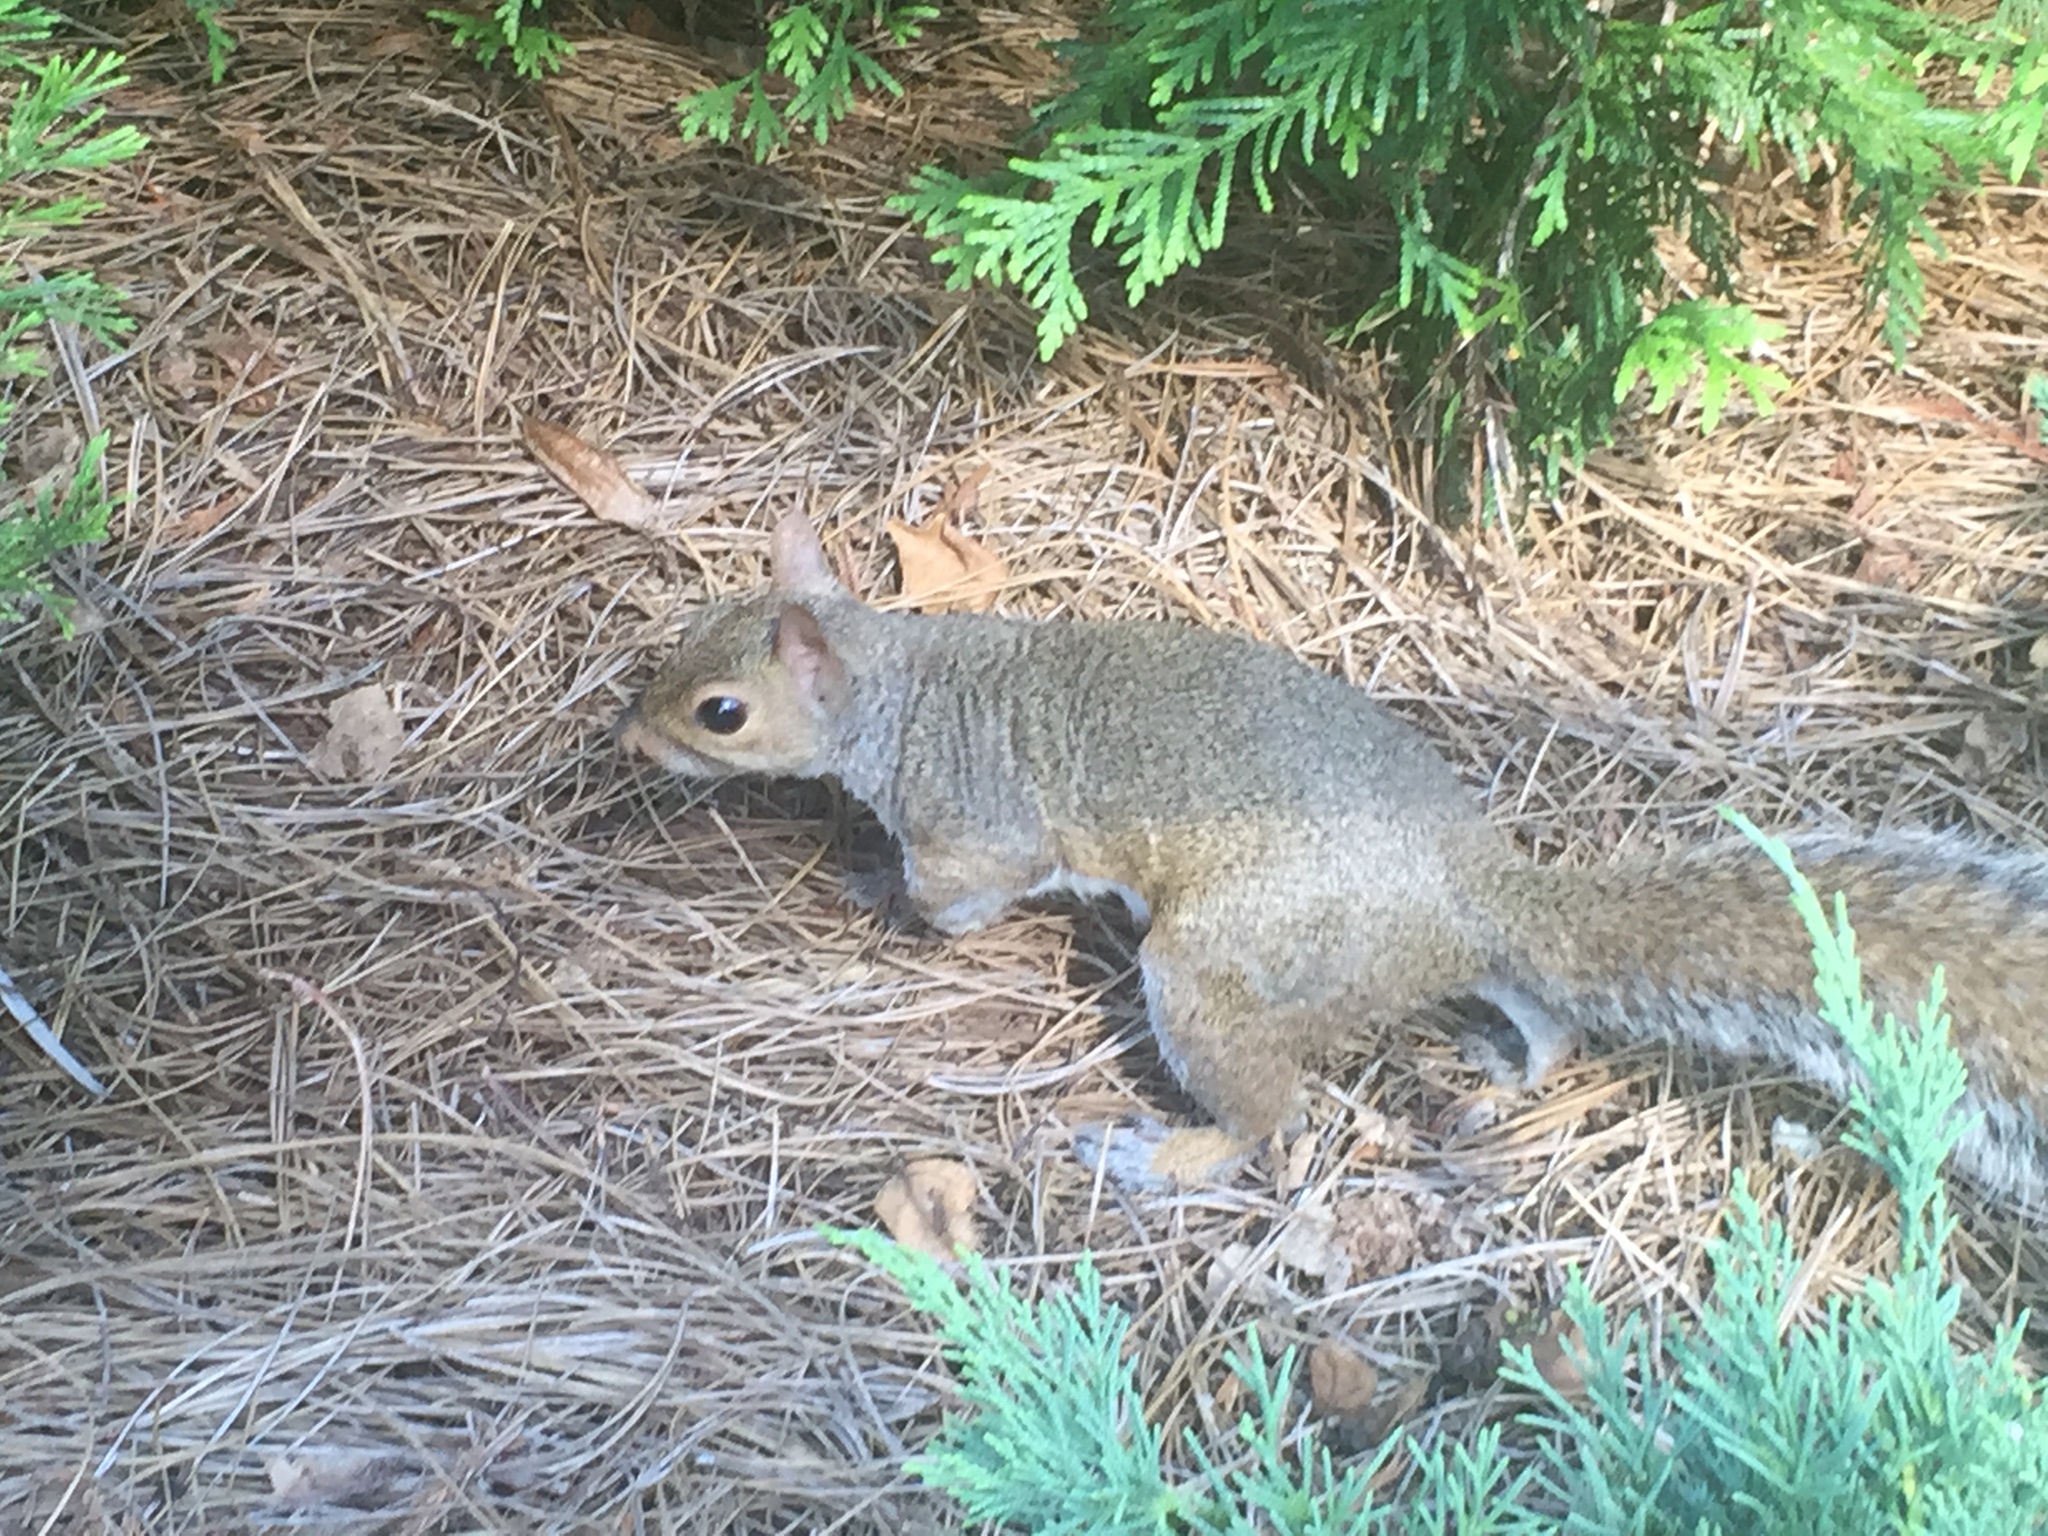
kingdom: Animalia
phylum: Chordata
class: Mammalia
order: Rodentia
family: Sciuridae
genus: Sciurus
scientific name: Sciurus carolinensis
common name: Eastern gray squirrel
